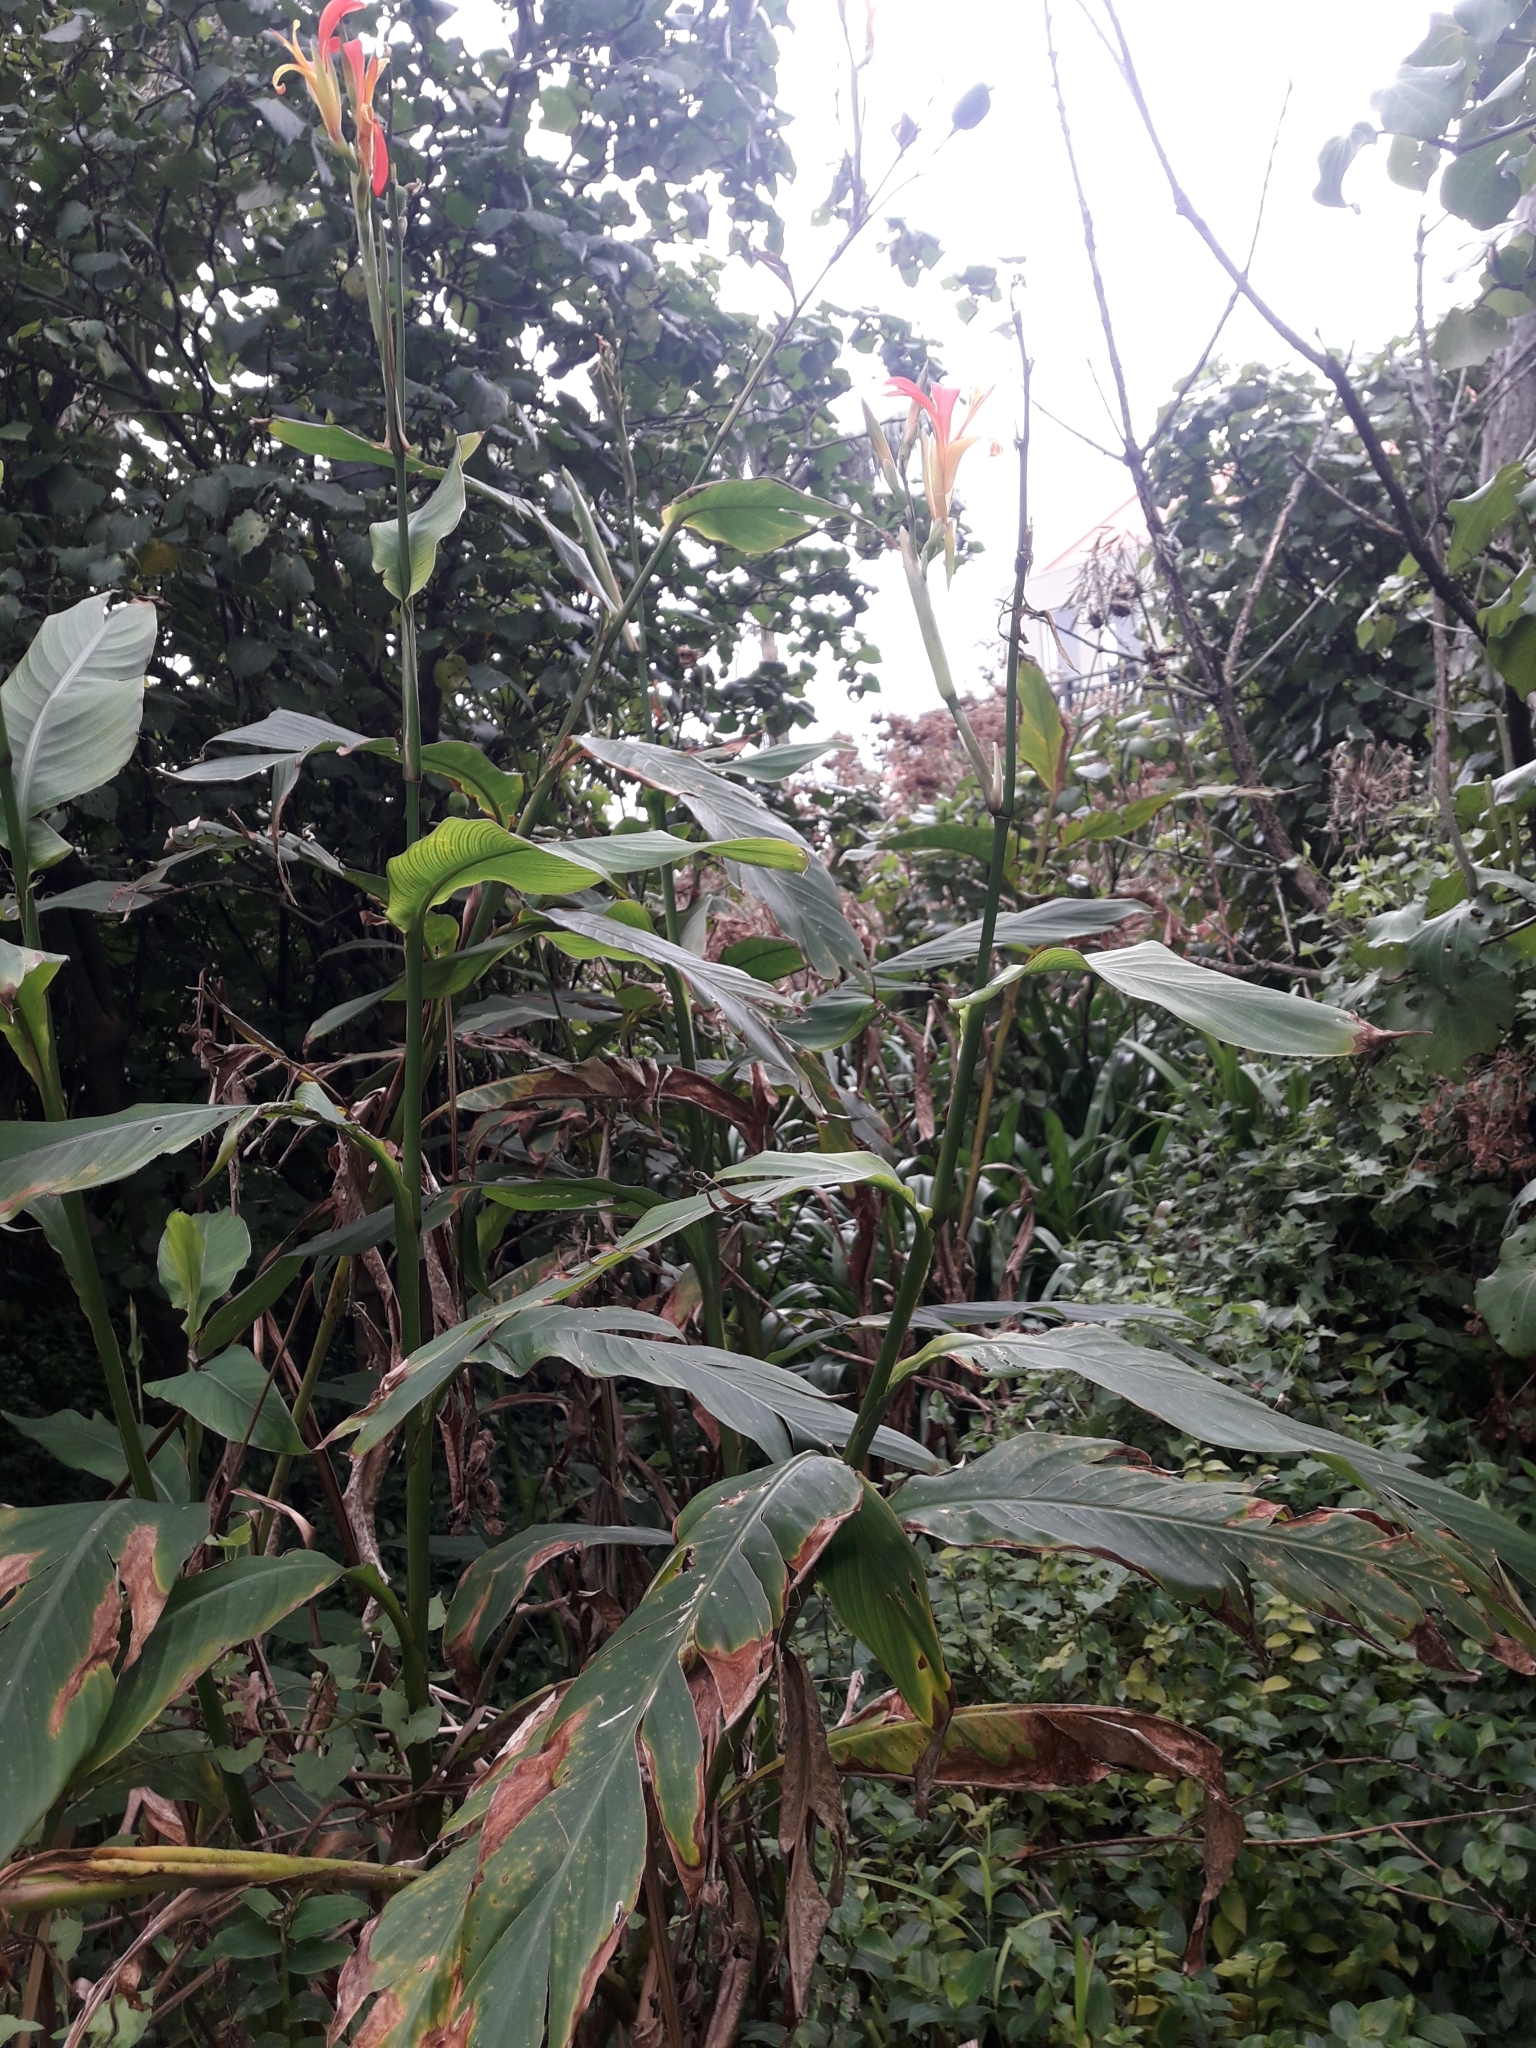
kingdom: Plantae
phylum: Tracheophyta
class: Liliopsida
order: Zingiberales
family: Cannaceae
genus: Canna
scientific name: Canna indica
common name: Indian shot
